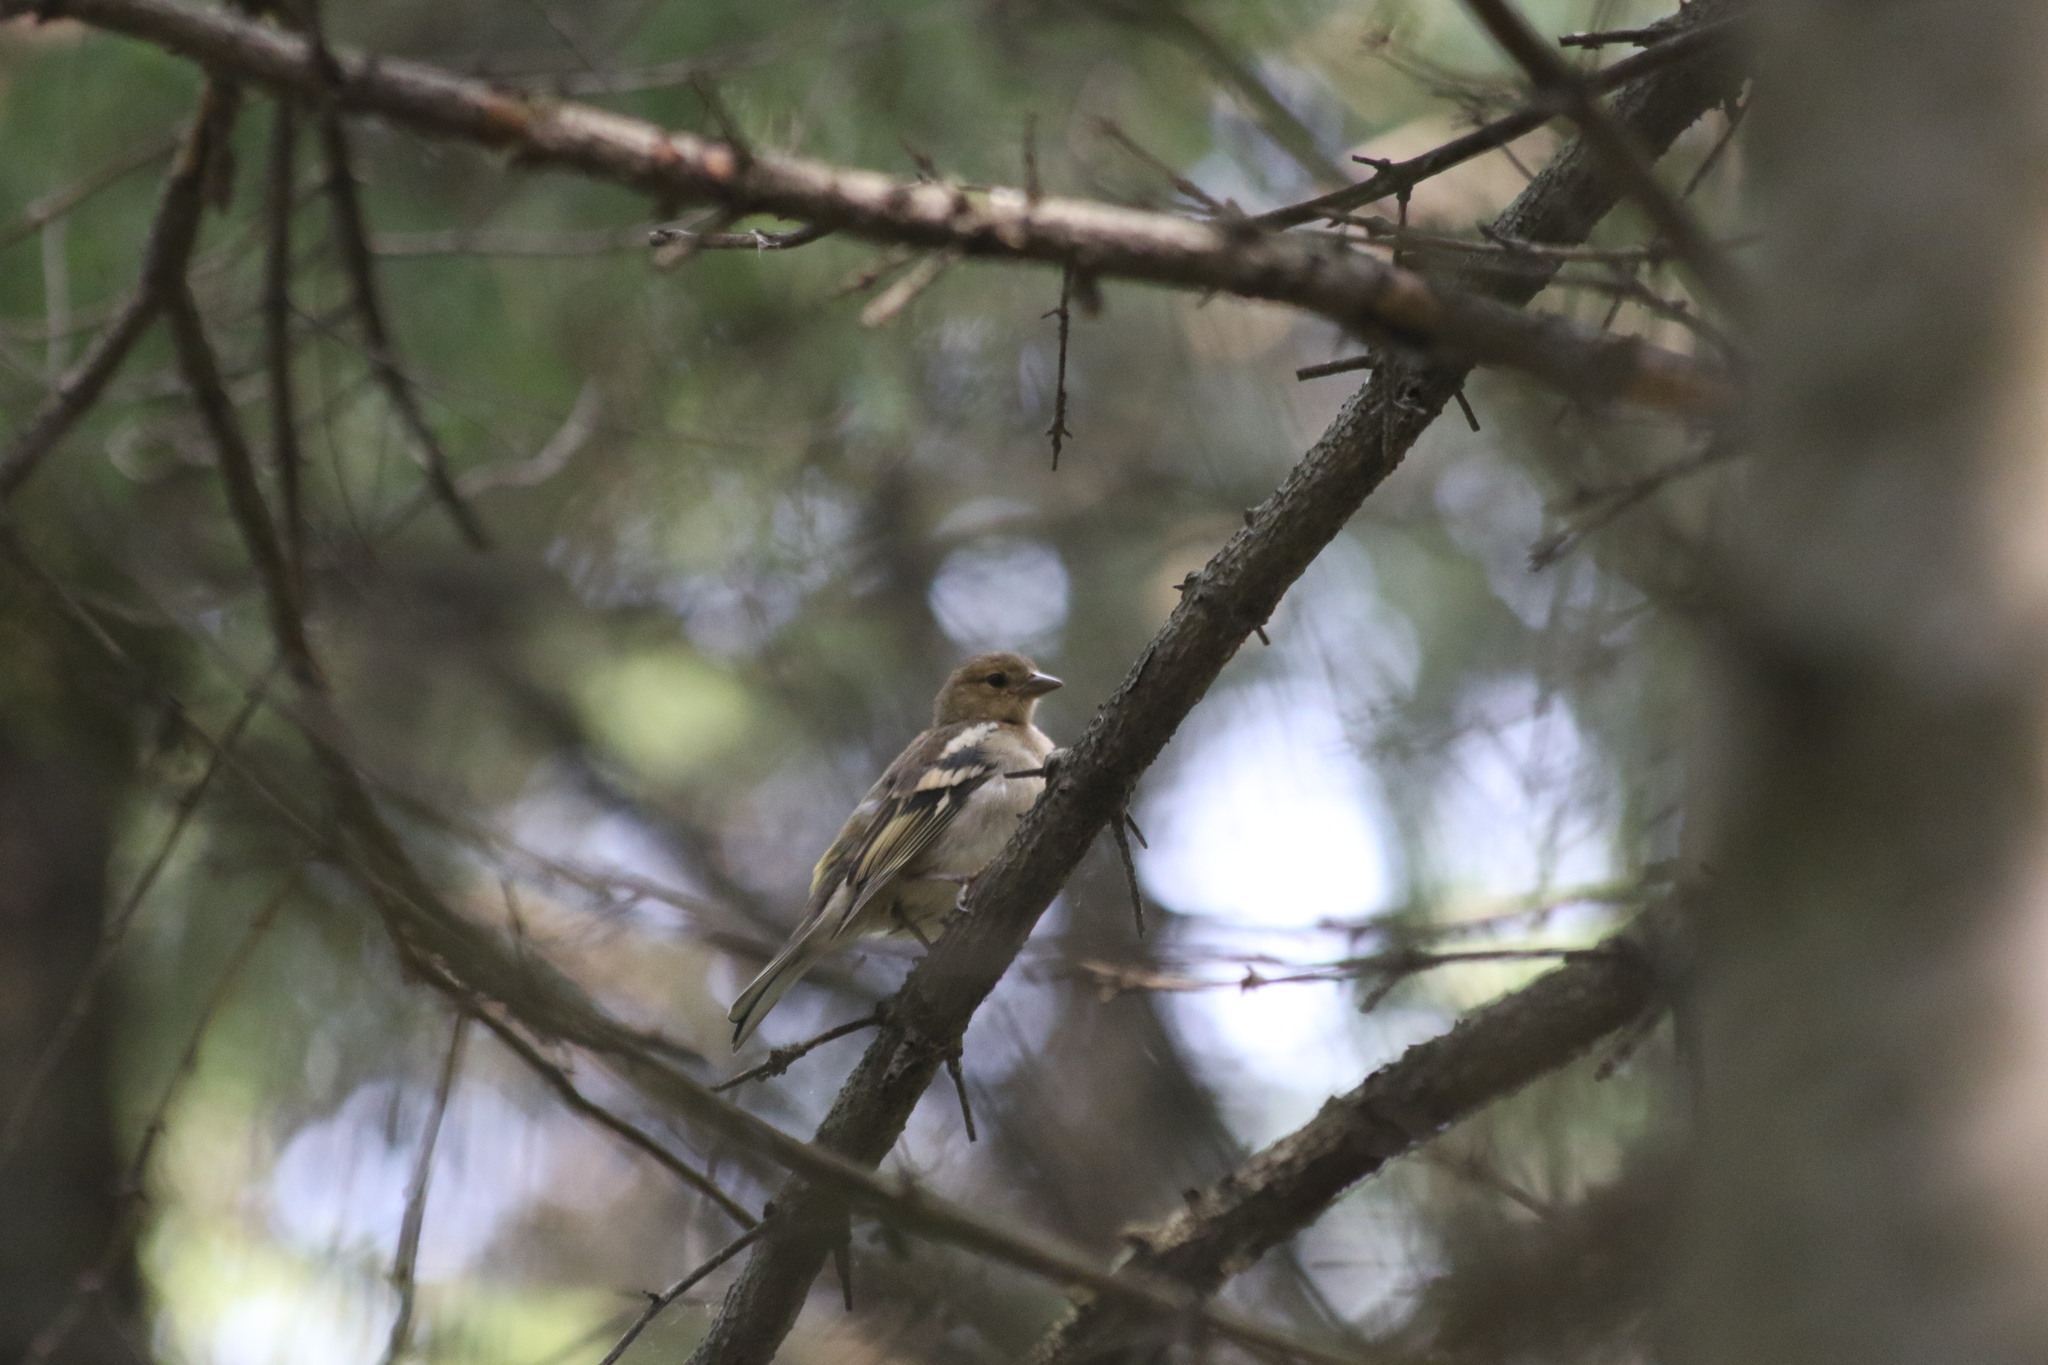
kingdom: Animalia
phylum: Chordata
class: Aves
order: Passeriformes
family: Fringillidae
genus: Fringilla
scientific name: Fringilla coelebs
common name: Common chaffinch
